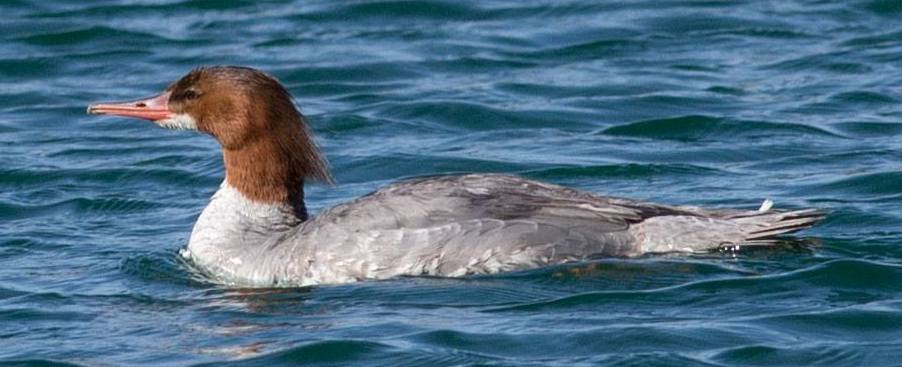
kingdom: Animalia
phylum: Chordata
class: Aves
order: Anseriformes
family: Anatidae
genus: Mergus
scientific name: Mergus merganser
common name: Common merganser
